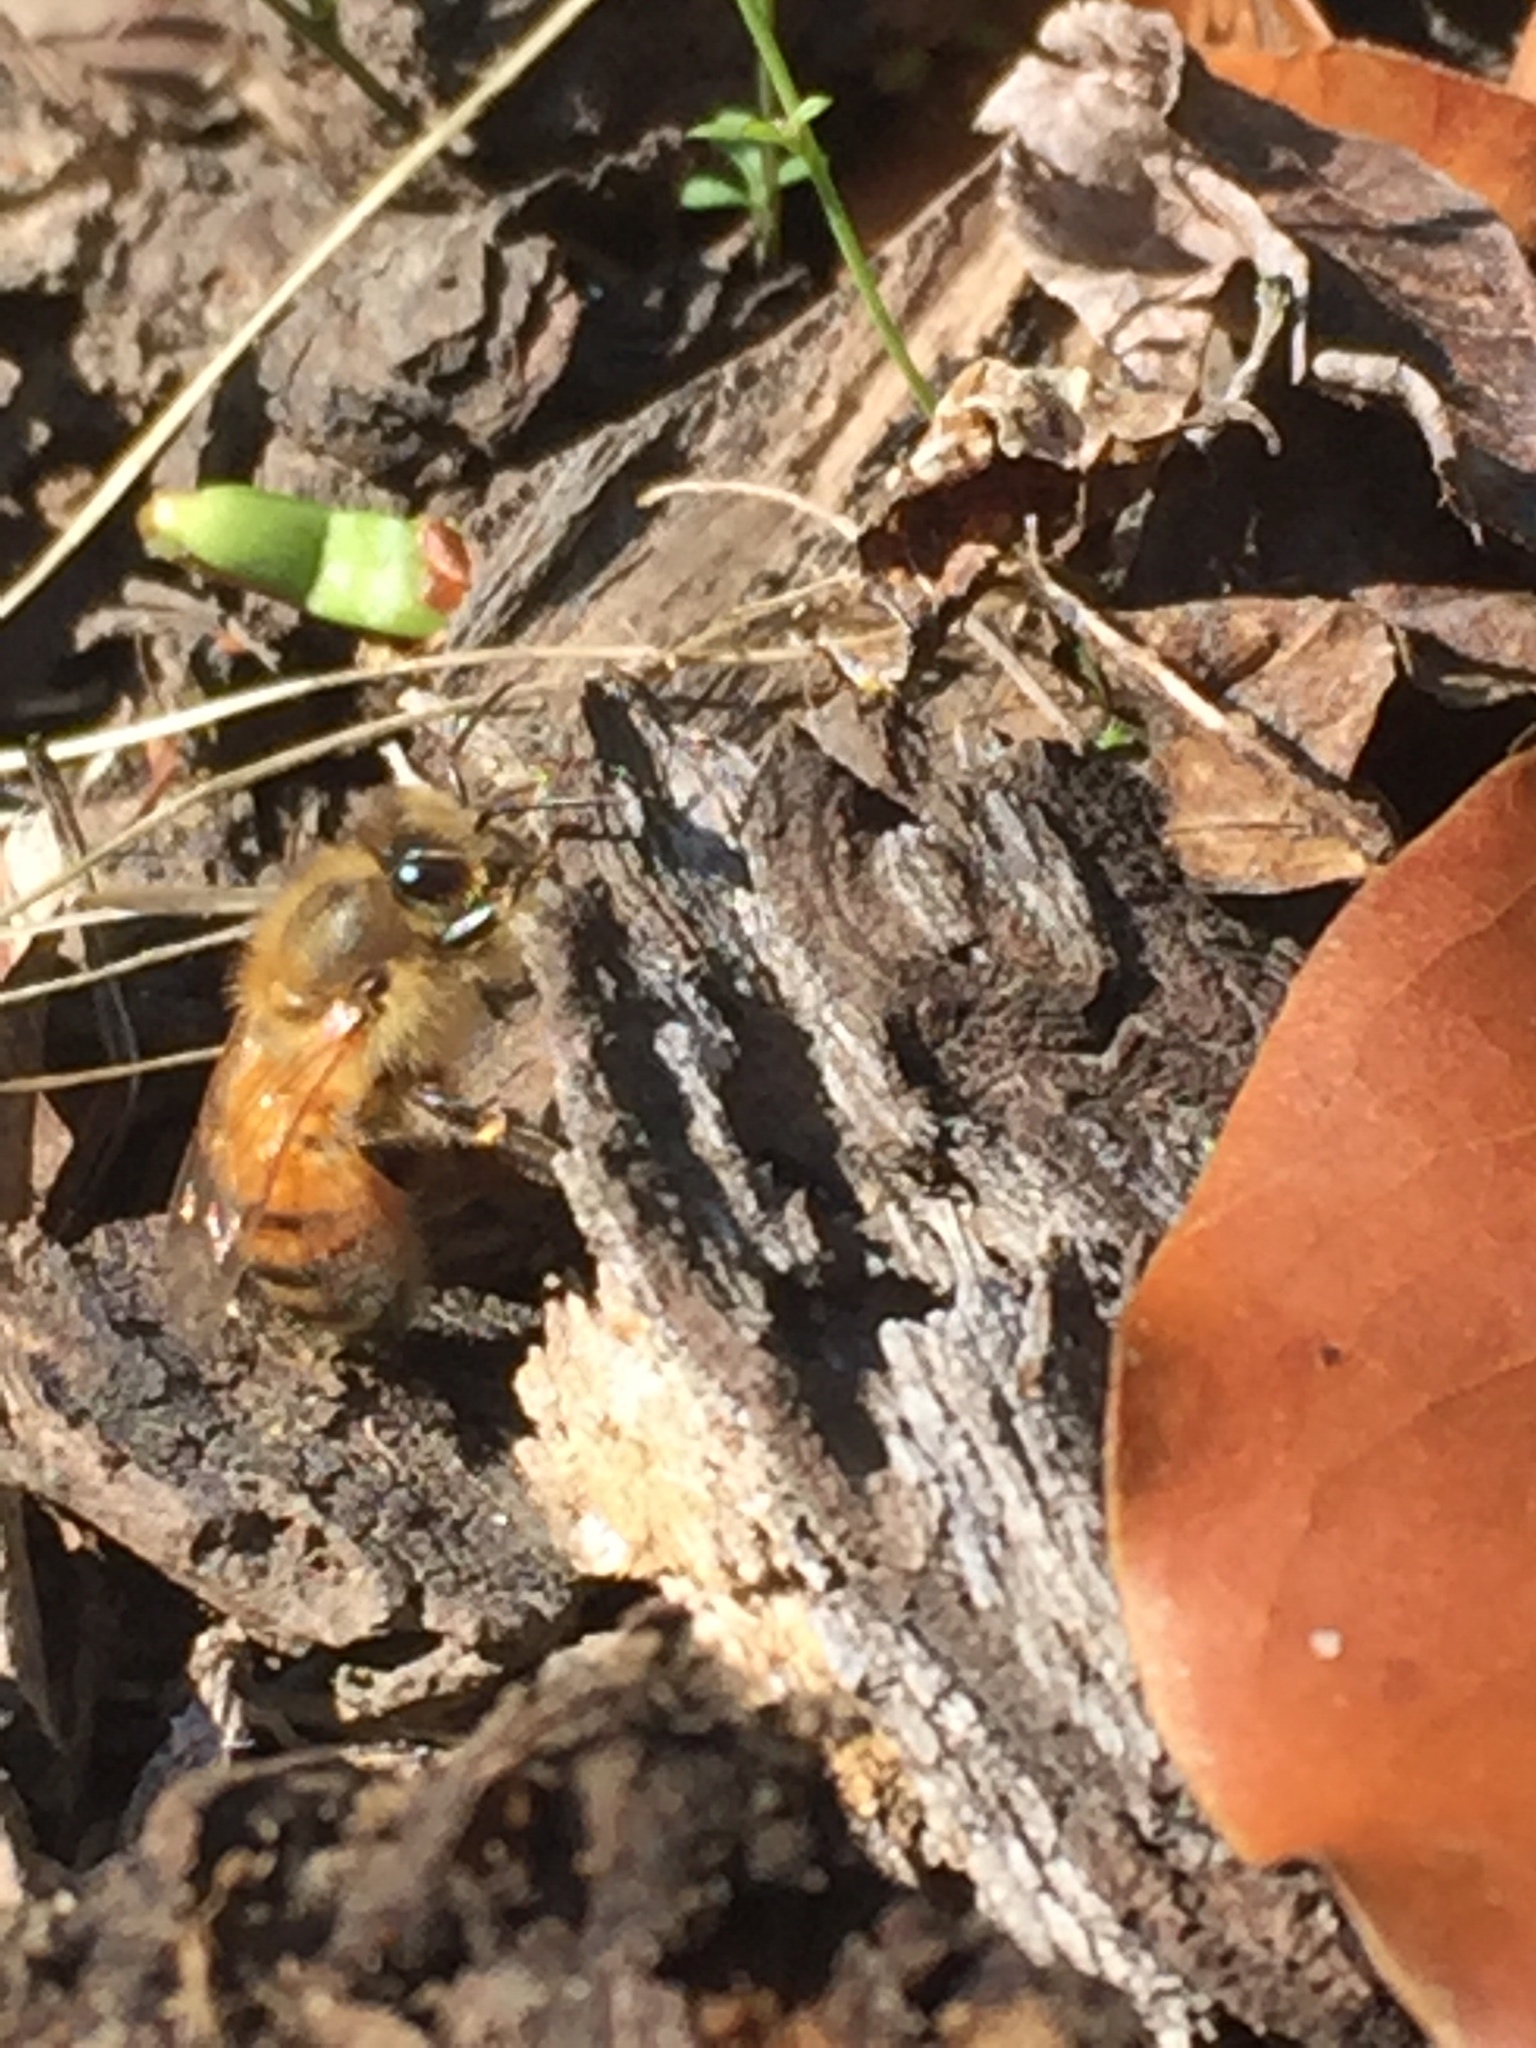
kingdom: Animalia
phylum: Arthropoda
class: Insecta
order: Hymenoptera
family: Apidae
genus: Apis
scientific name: Apis mellifera
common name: Honey bee
